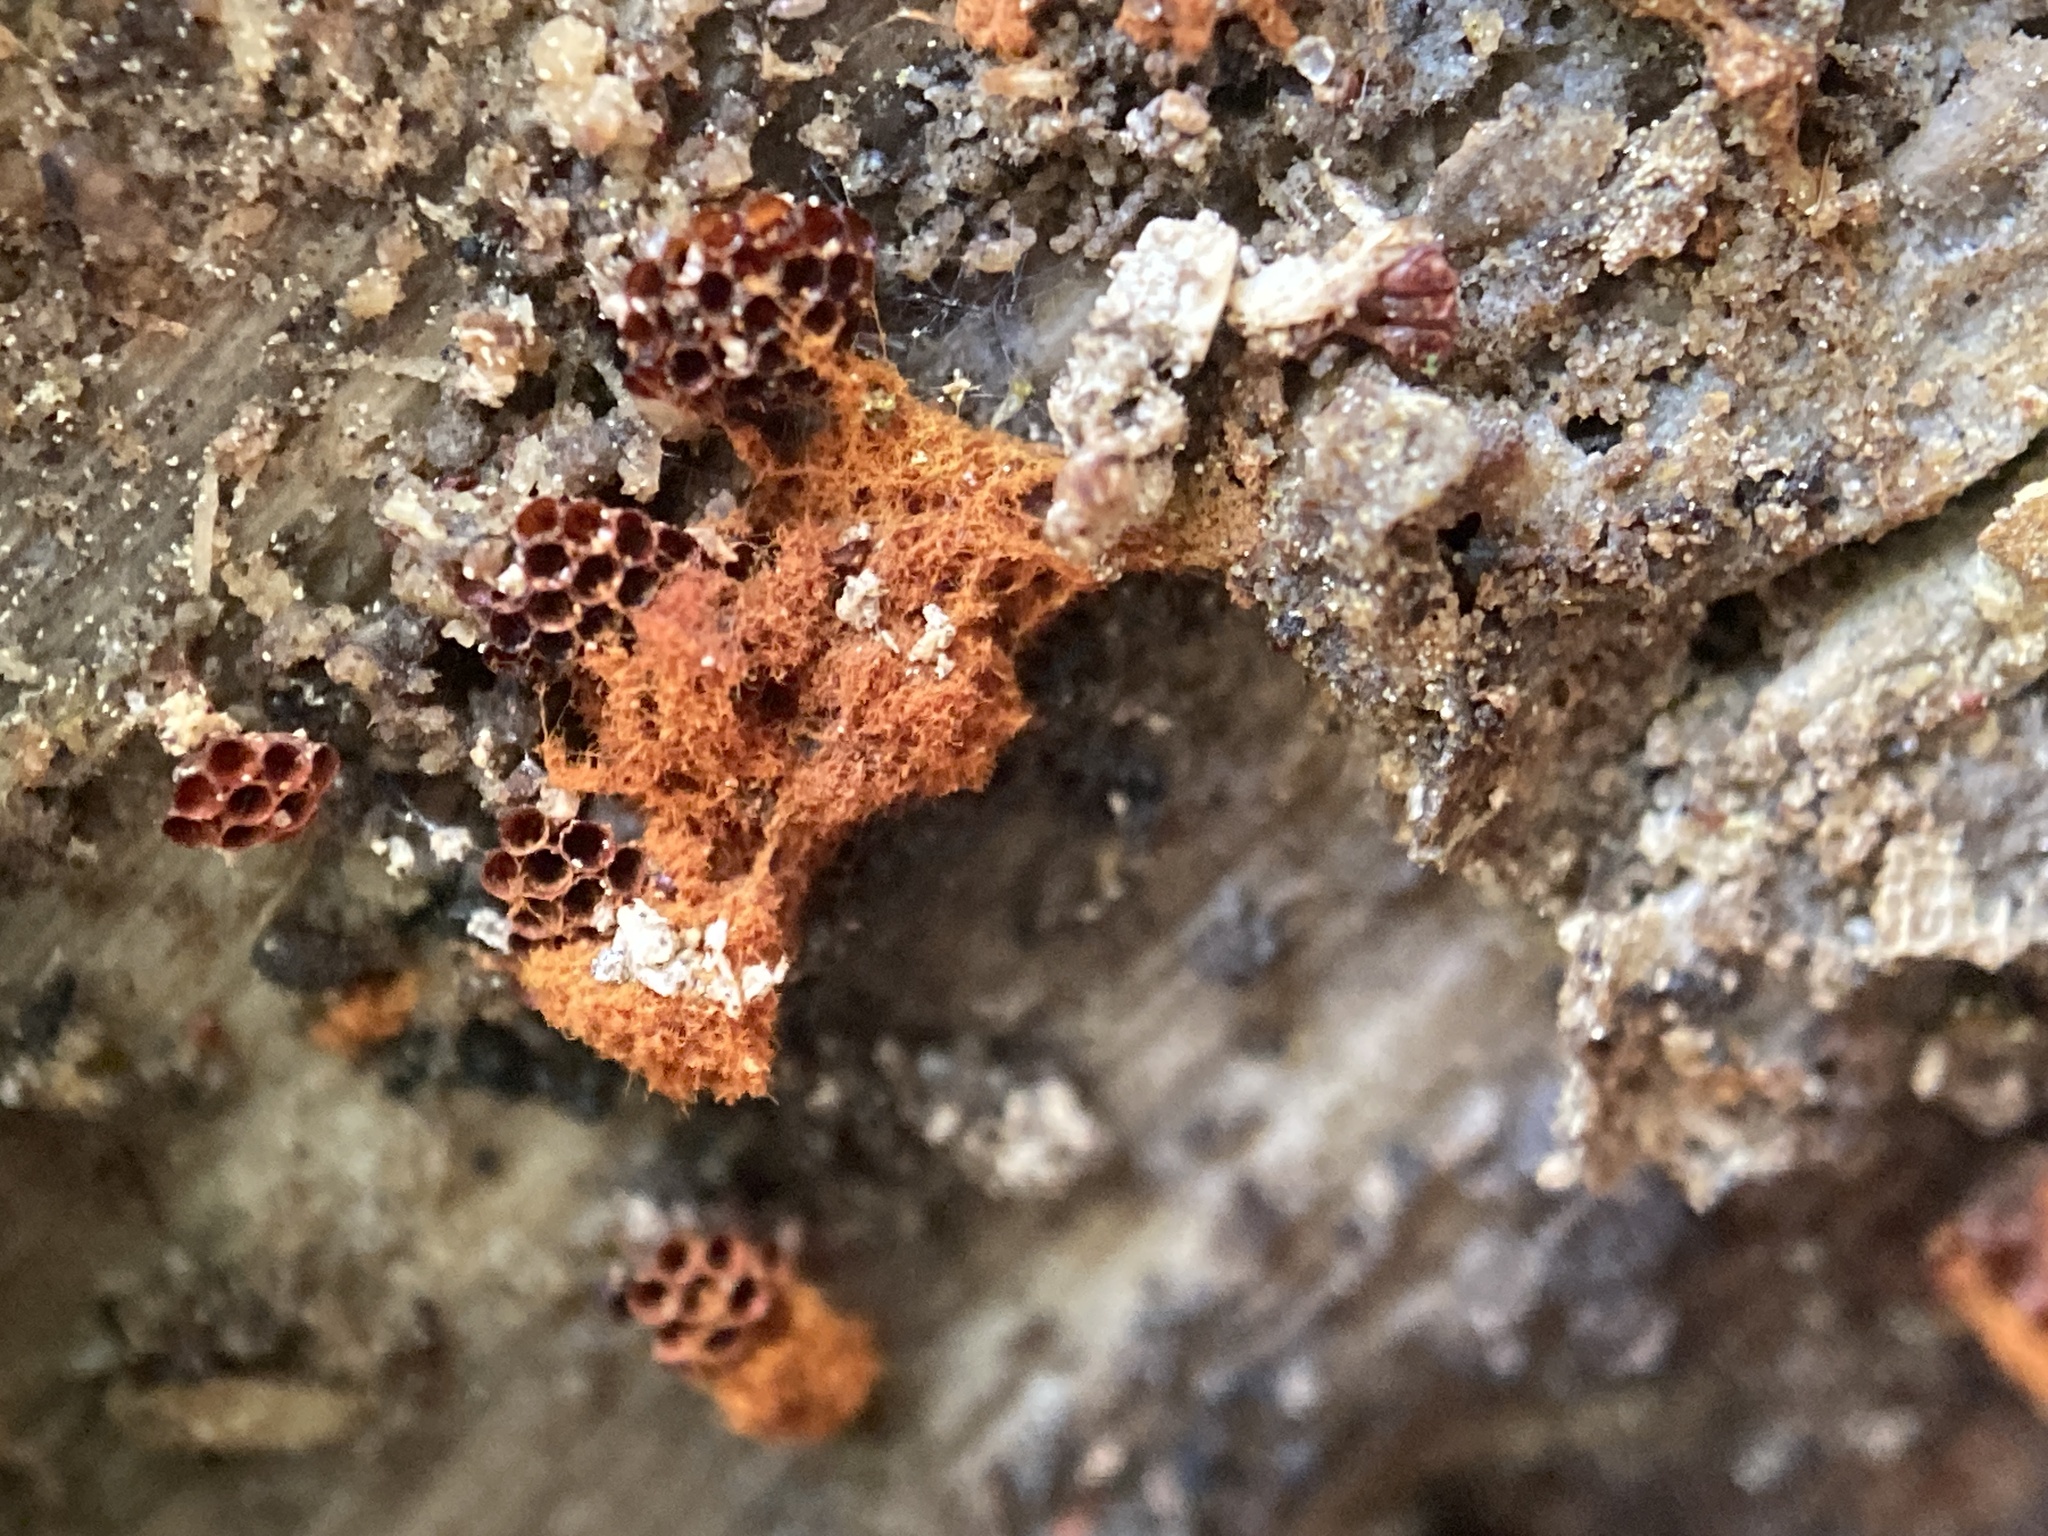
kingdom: Protozoa
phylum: Mycetozoa
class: Myxomycetes
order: Trichiales
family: Trichiaceae
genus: Metatrichia
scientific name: Metatrichia vesparia
